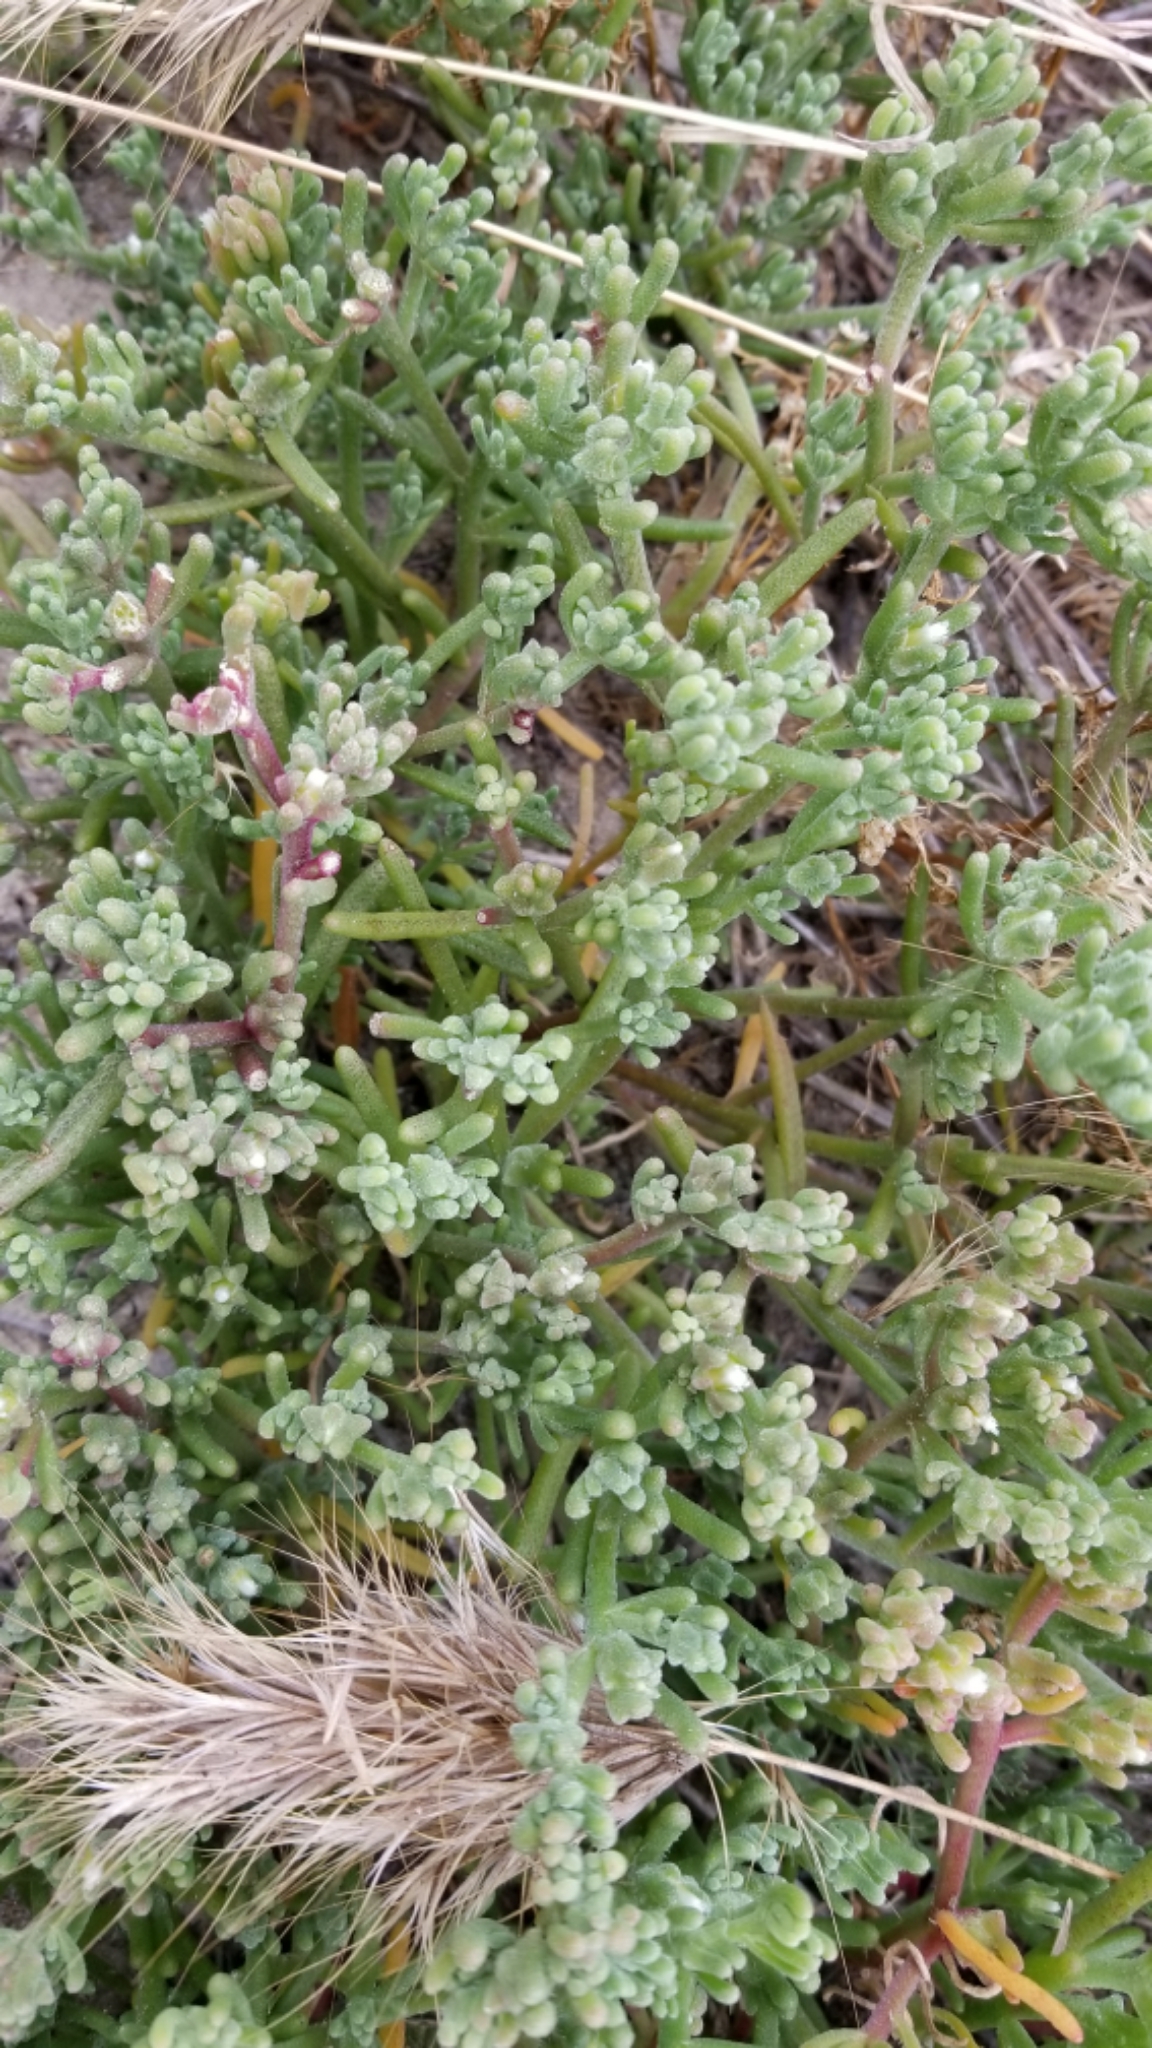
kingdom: Plantae
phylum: Tracheophyta
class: Magnoliopsida
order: Caryophyllales
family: Aizoaceae
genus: Mesembryanthemum
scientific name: Mesembryanthemum nodiflorum
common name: Slenderleaf iceplant
